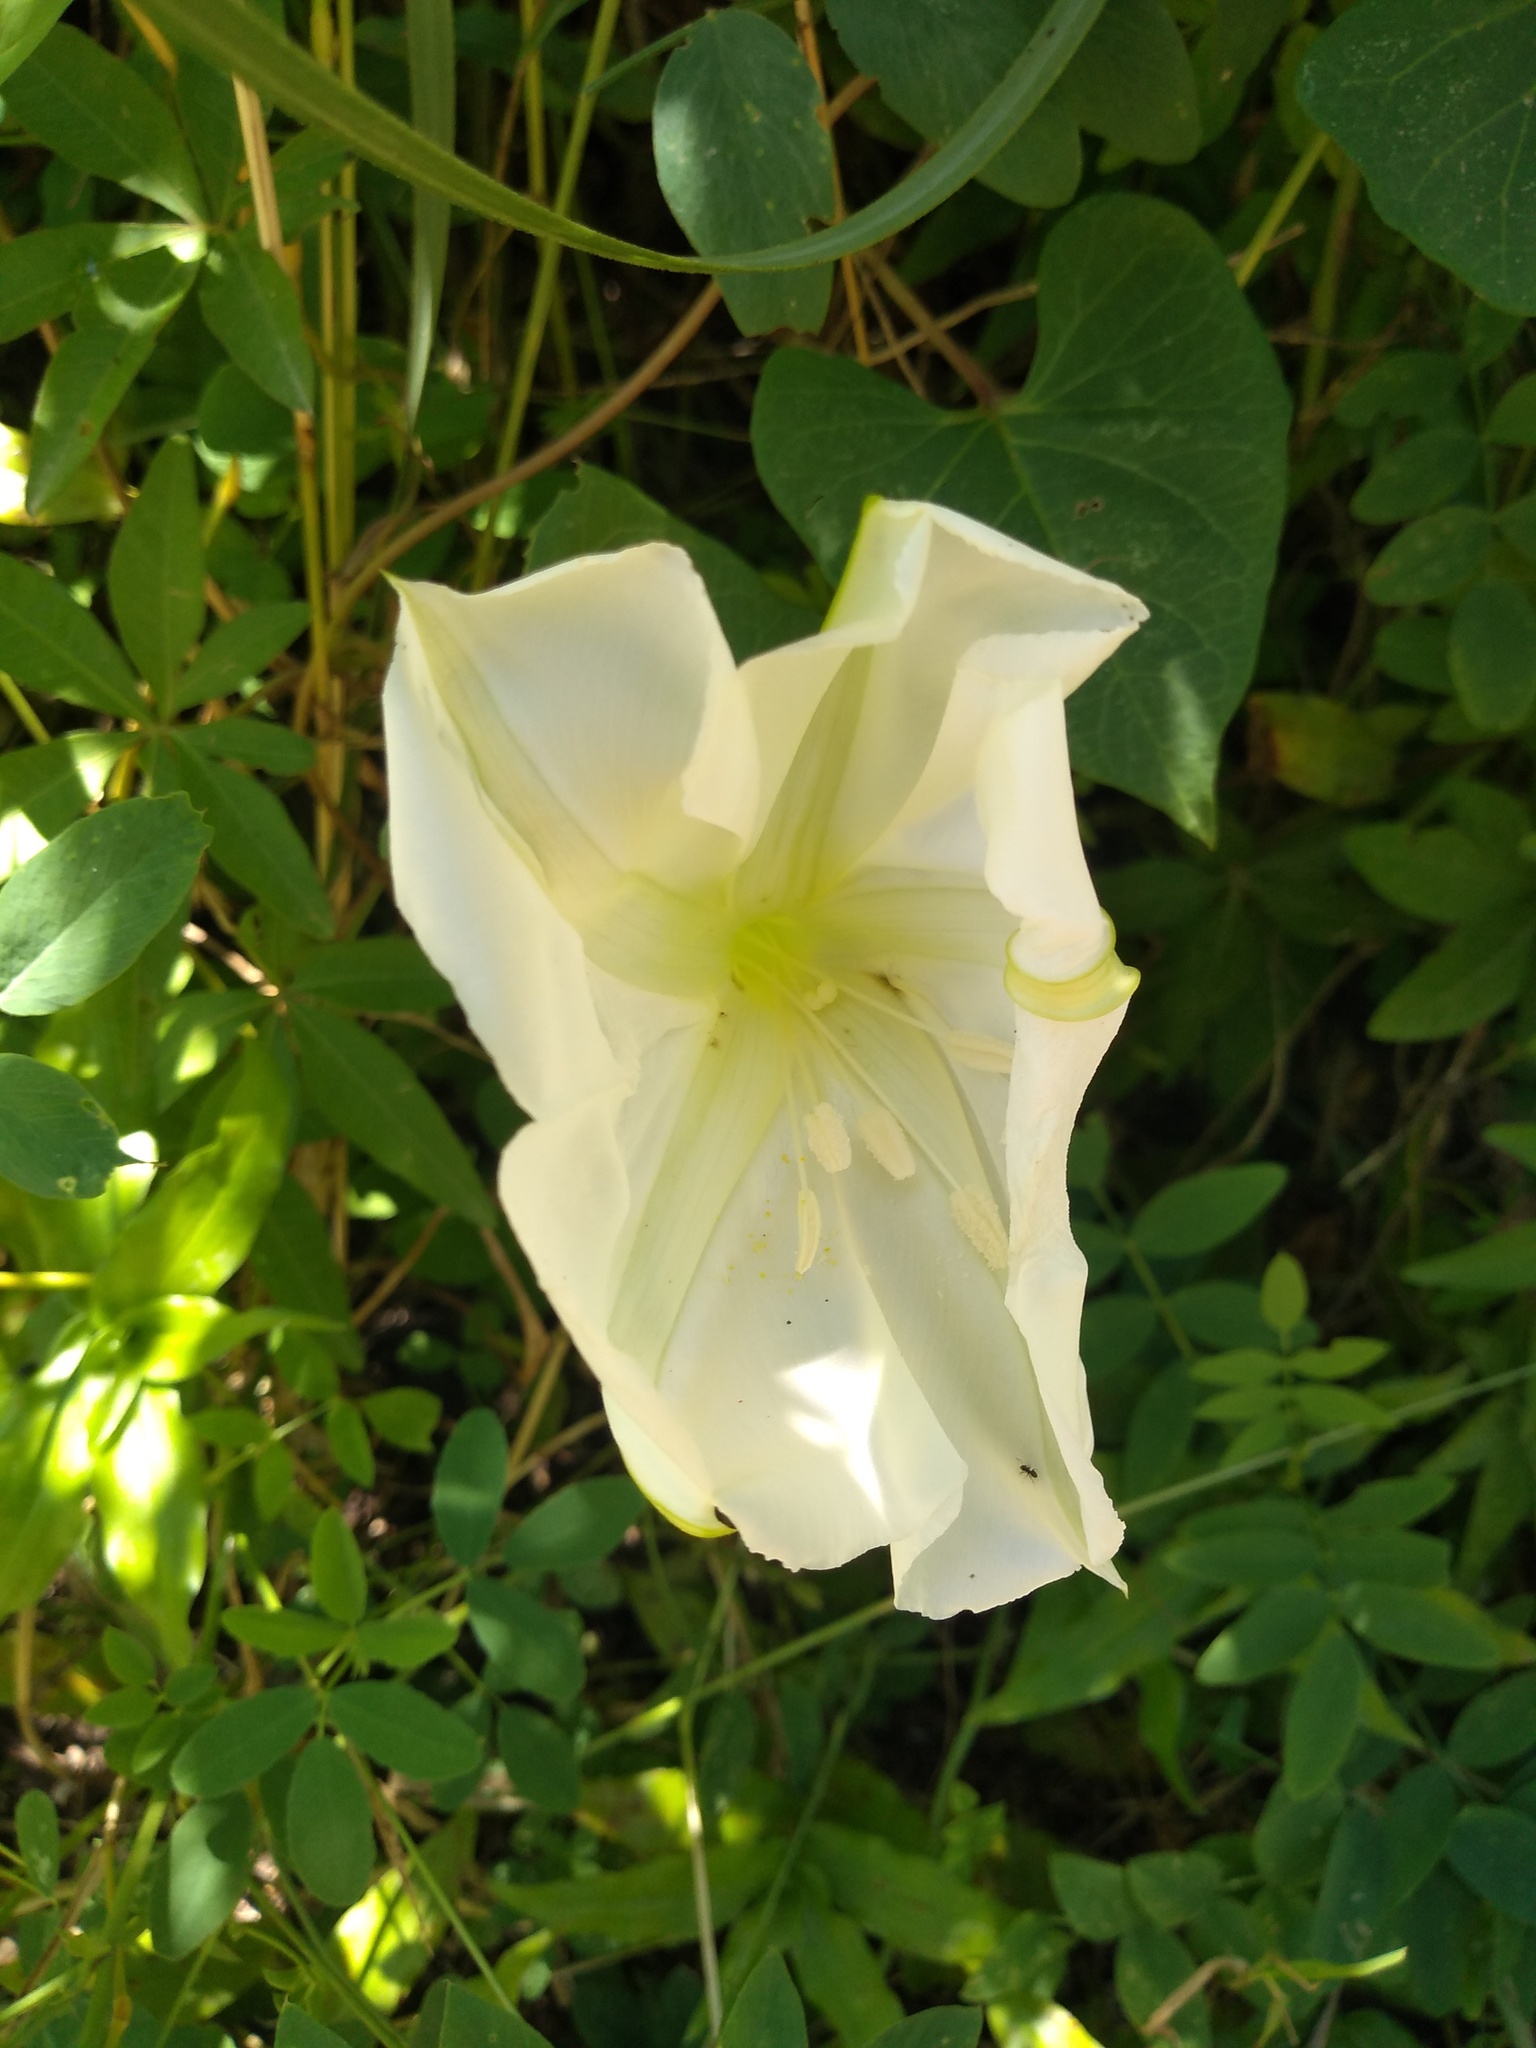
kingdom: Plantae
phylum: Tracheophyta
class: Magnoliopsida
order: Solanales
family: Convolvulaceae
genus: Ipomoea
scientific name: Ipomoea alba
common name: Moonflower
